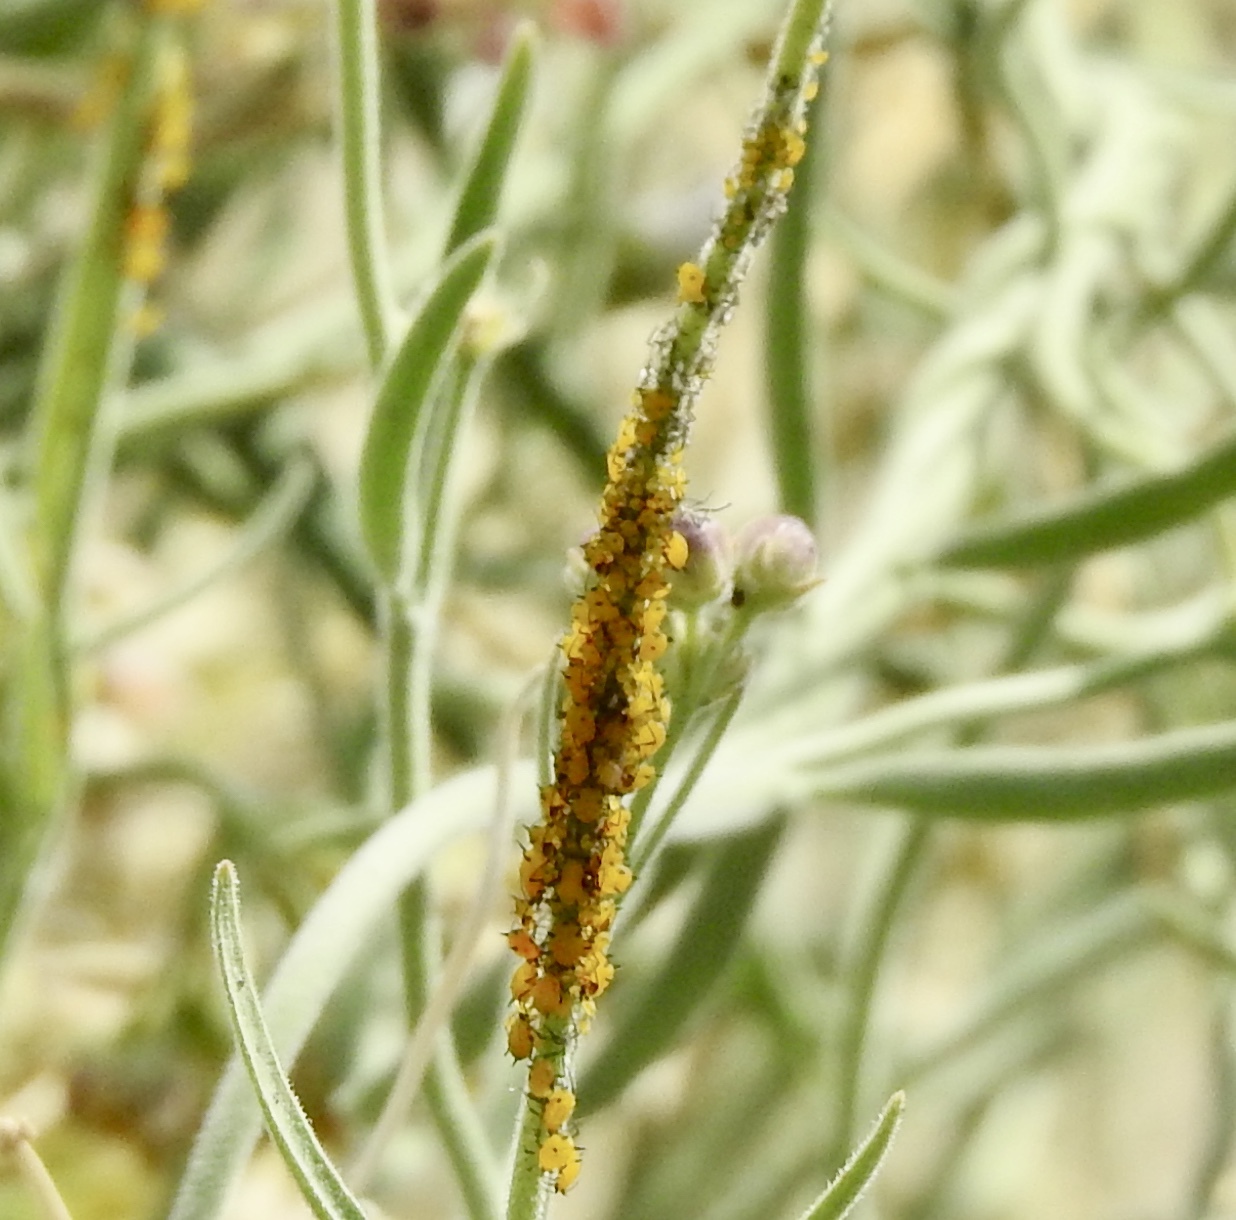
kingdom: Animalia
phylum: Arthropoda
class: Insecta
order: Hemiptera
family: Aphididae
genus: Aphis
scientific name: Aphis nerii
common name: Oleander aphid
